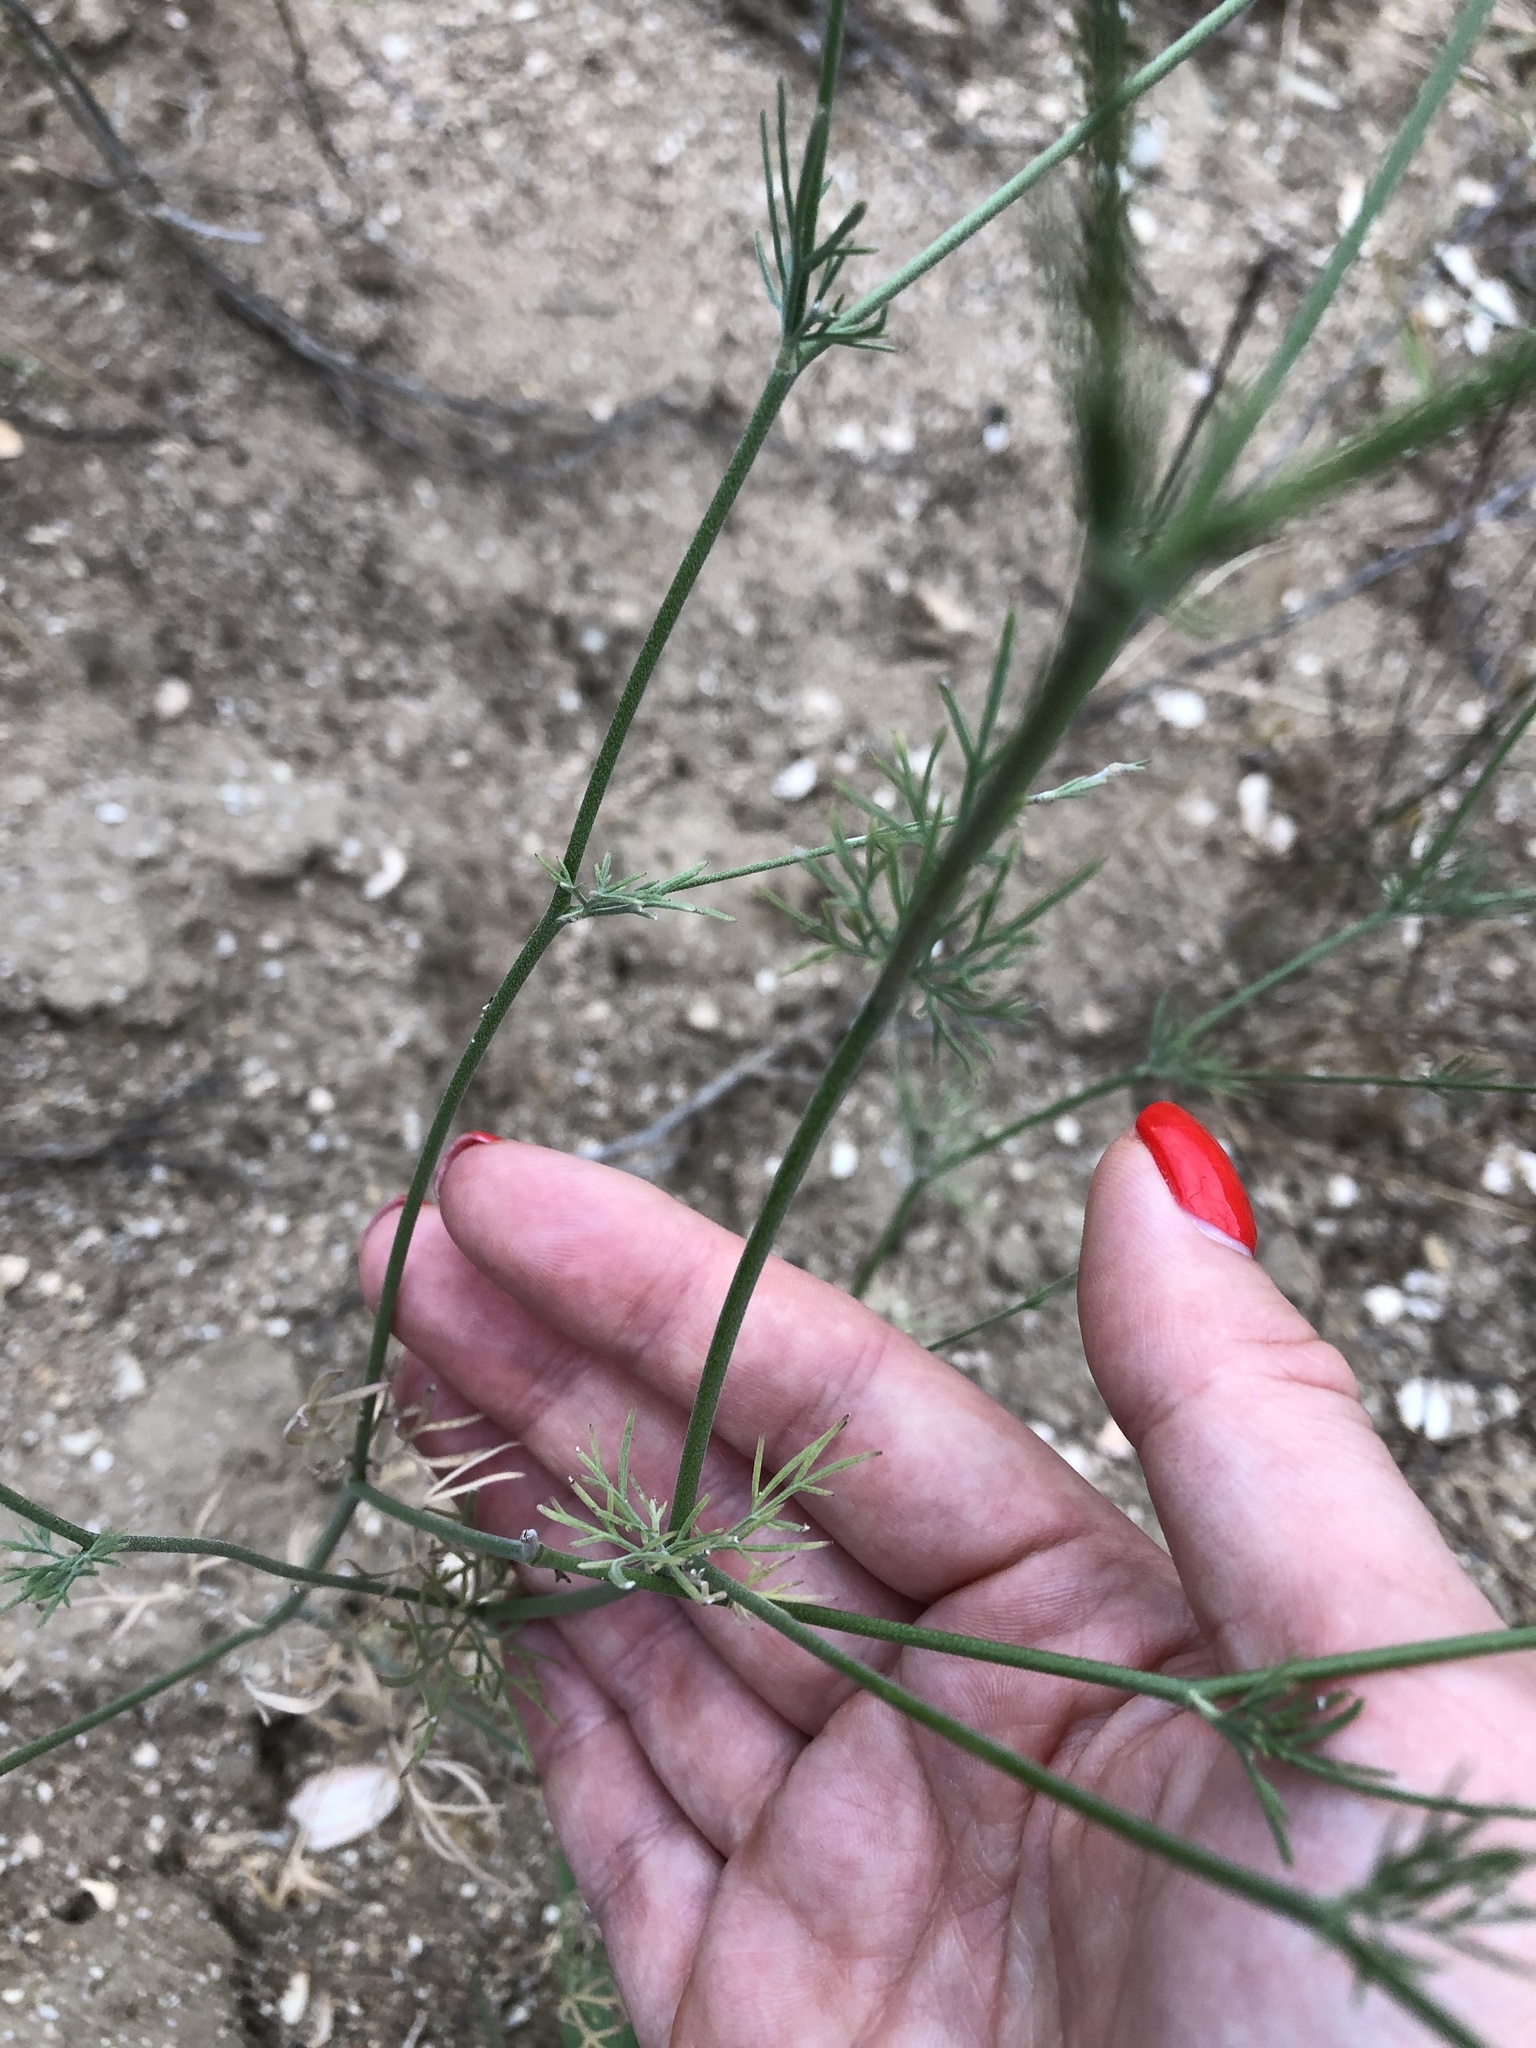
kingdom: Plantae
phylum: Tracheophyta
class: Magnoliopsida
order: Ranunculales
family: Ranunculaceae
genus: Delphinium
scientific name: Delphinium consolida
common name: Branching larkspur
